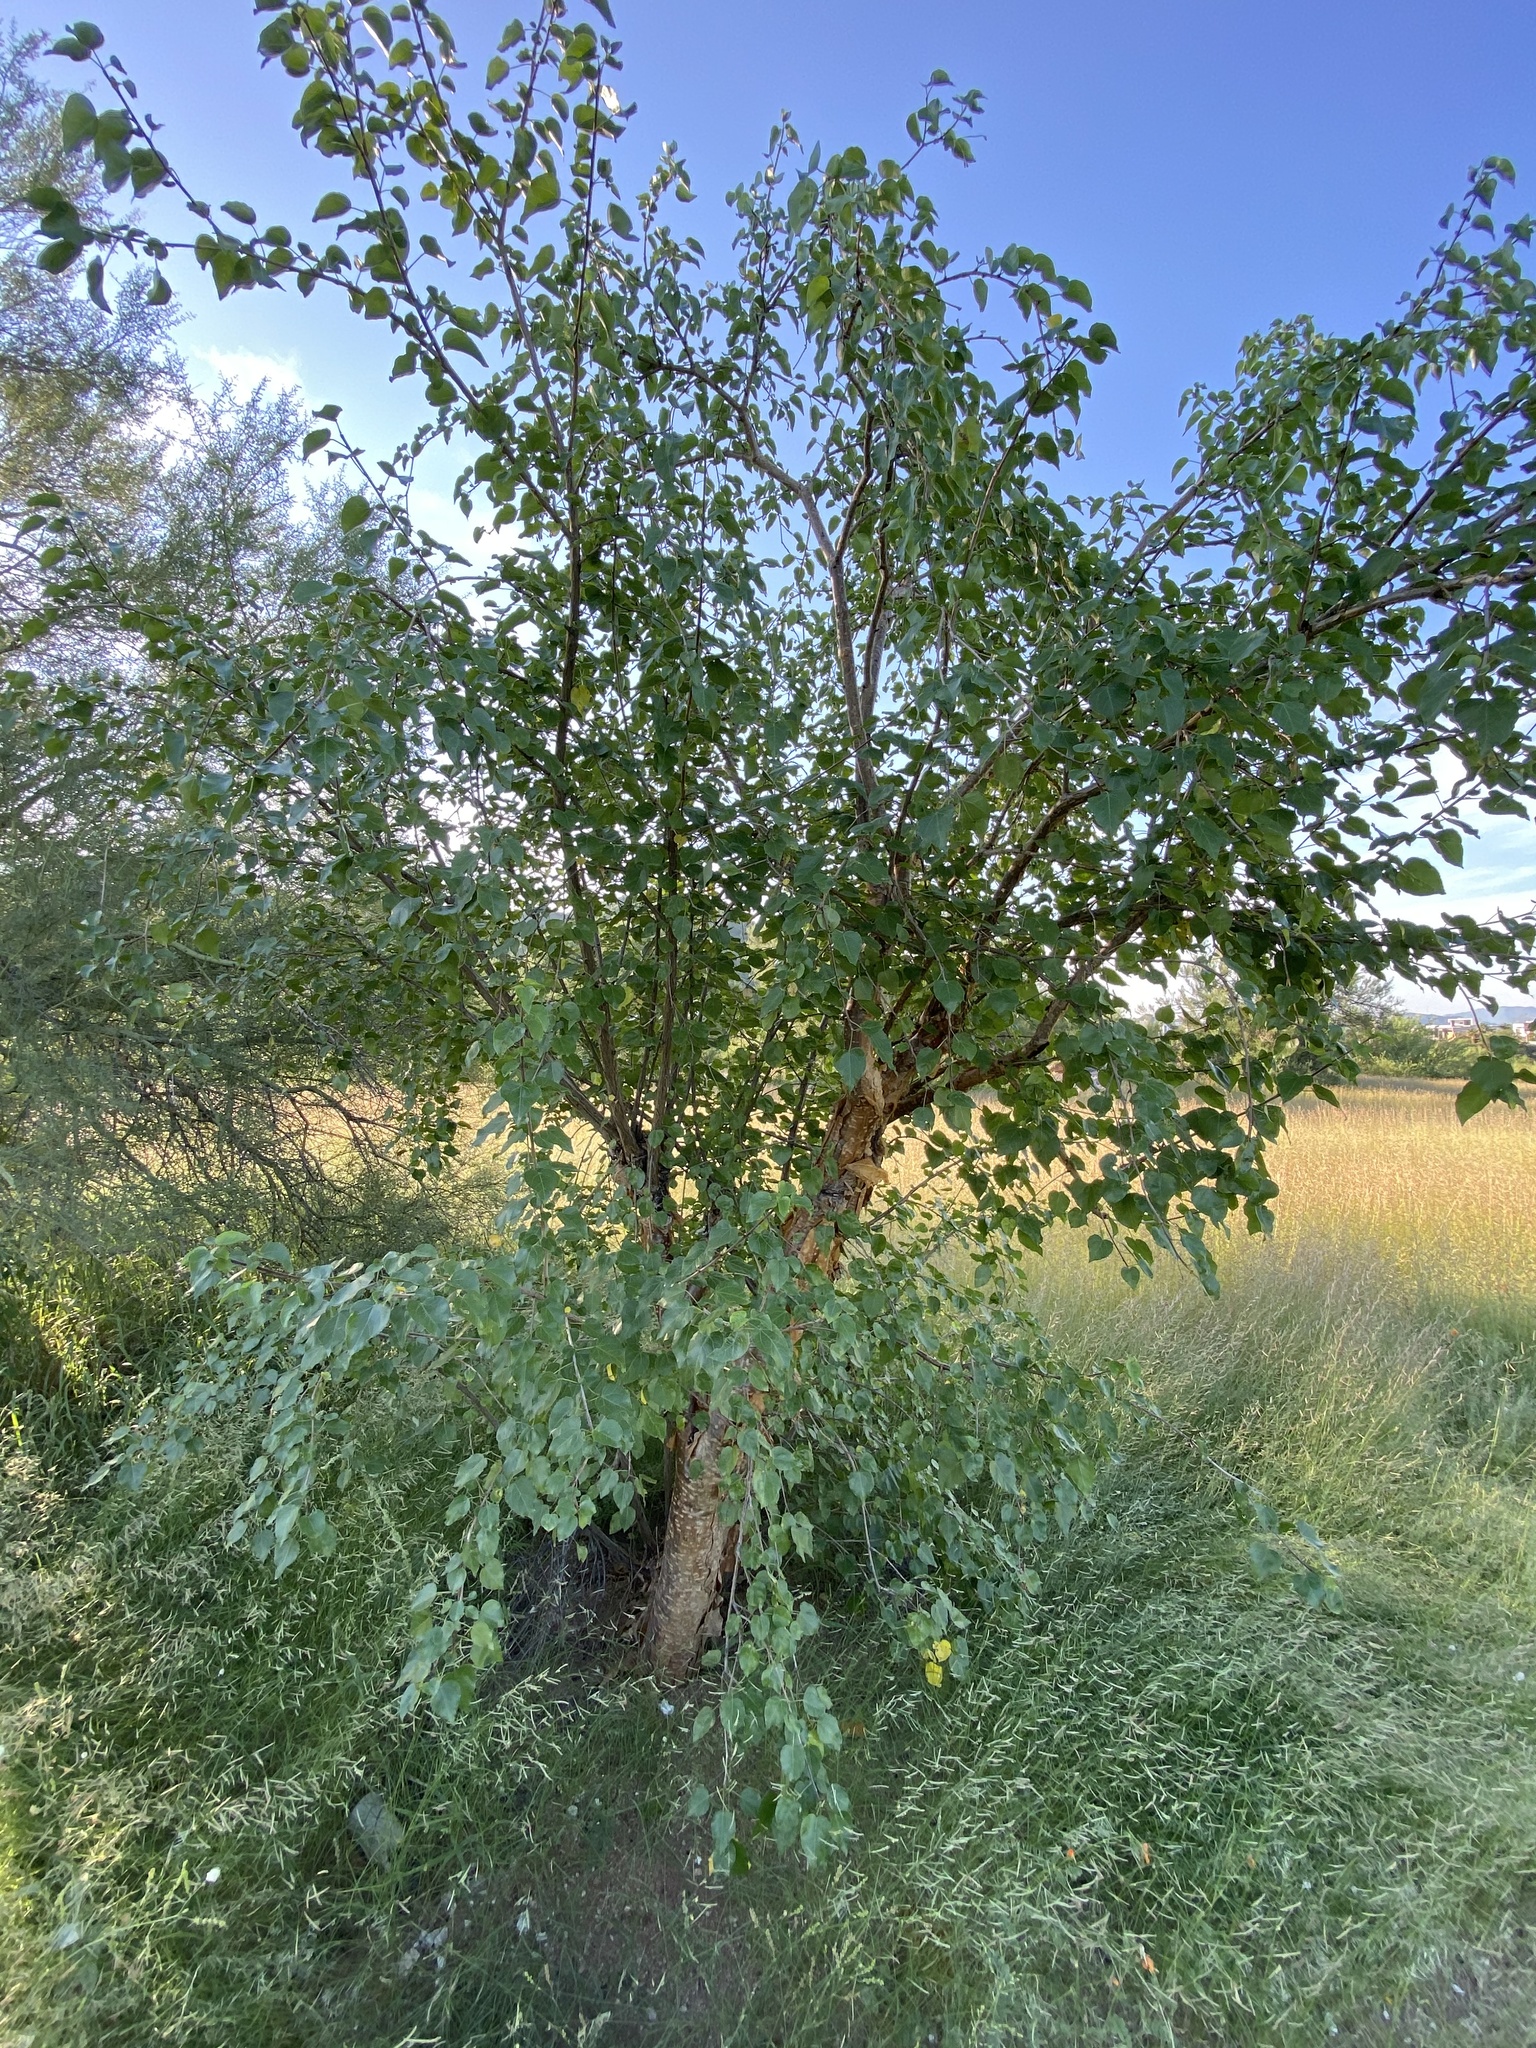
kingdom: Plantae
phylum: Tracheophyta
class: Magnoliopsida
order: Malpighiales
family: Euphorbiaceae
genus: Jatropha
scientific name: Jatropha cordata
